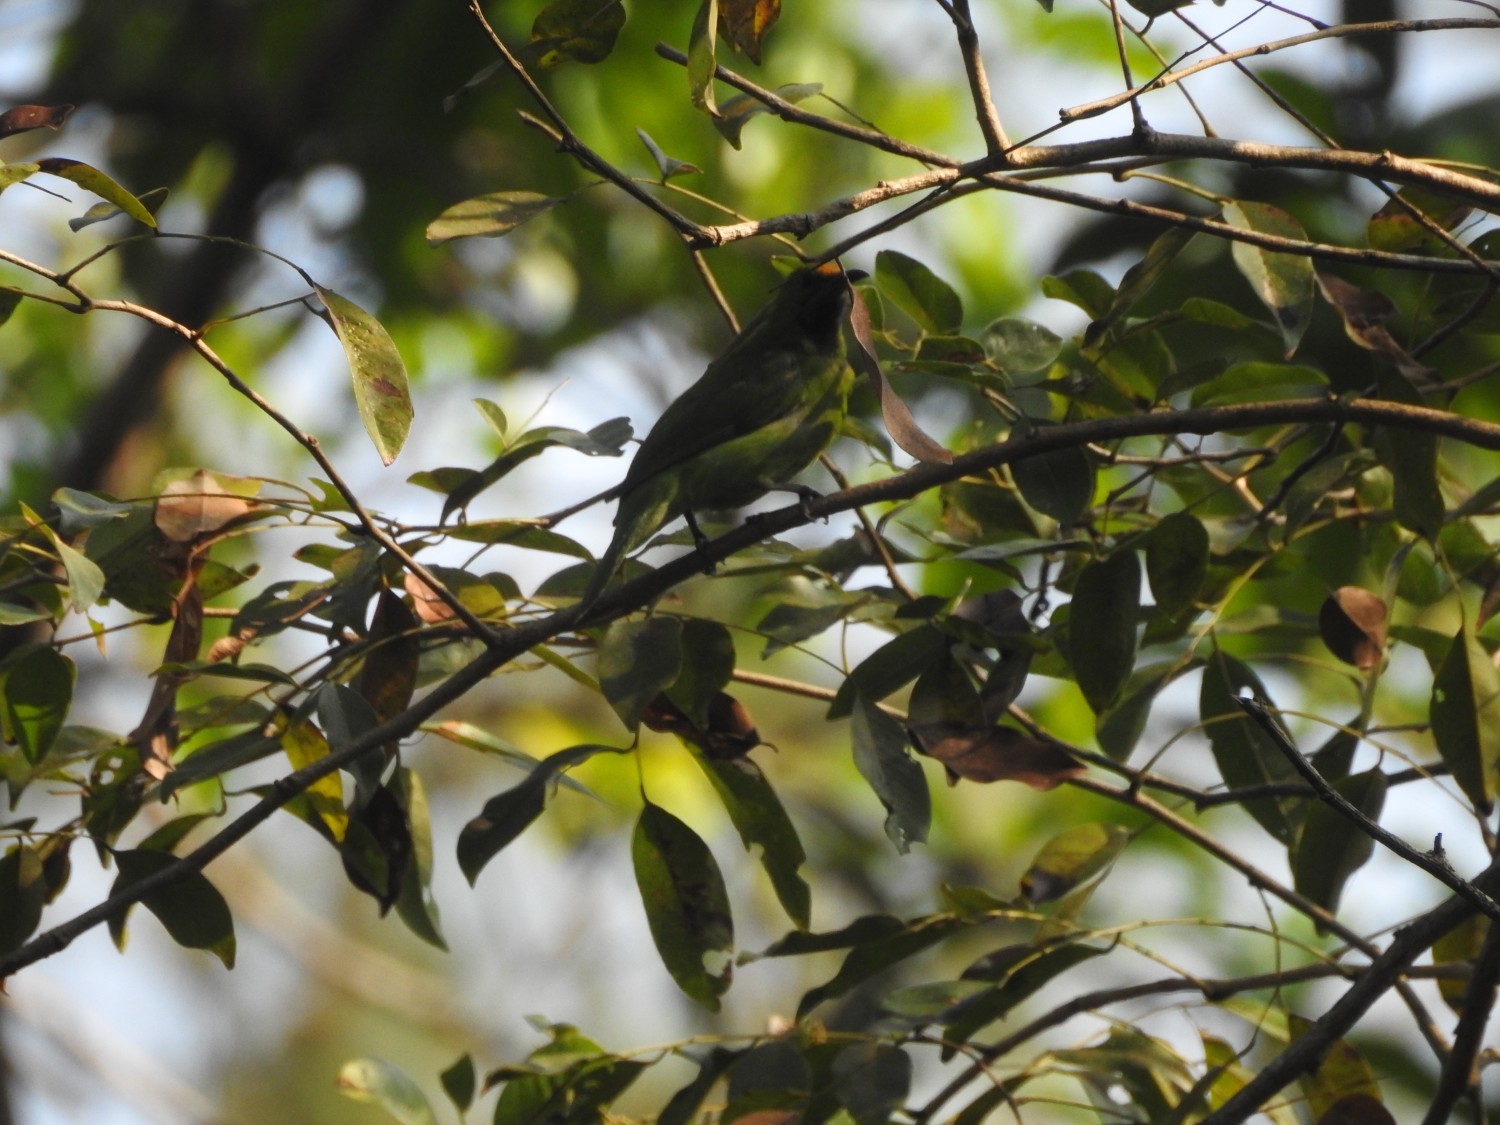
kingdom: Animalia
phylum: Chordata
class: Aves
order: Passeriformes
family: Chloropseidae
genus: Chloropsis
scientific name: Chloropsis aurifrons
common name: Golden-fronted leafbird
